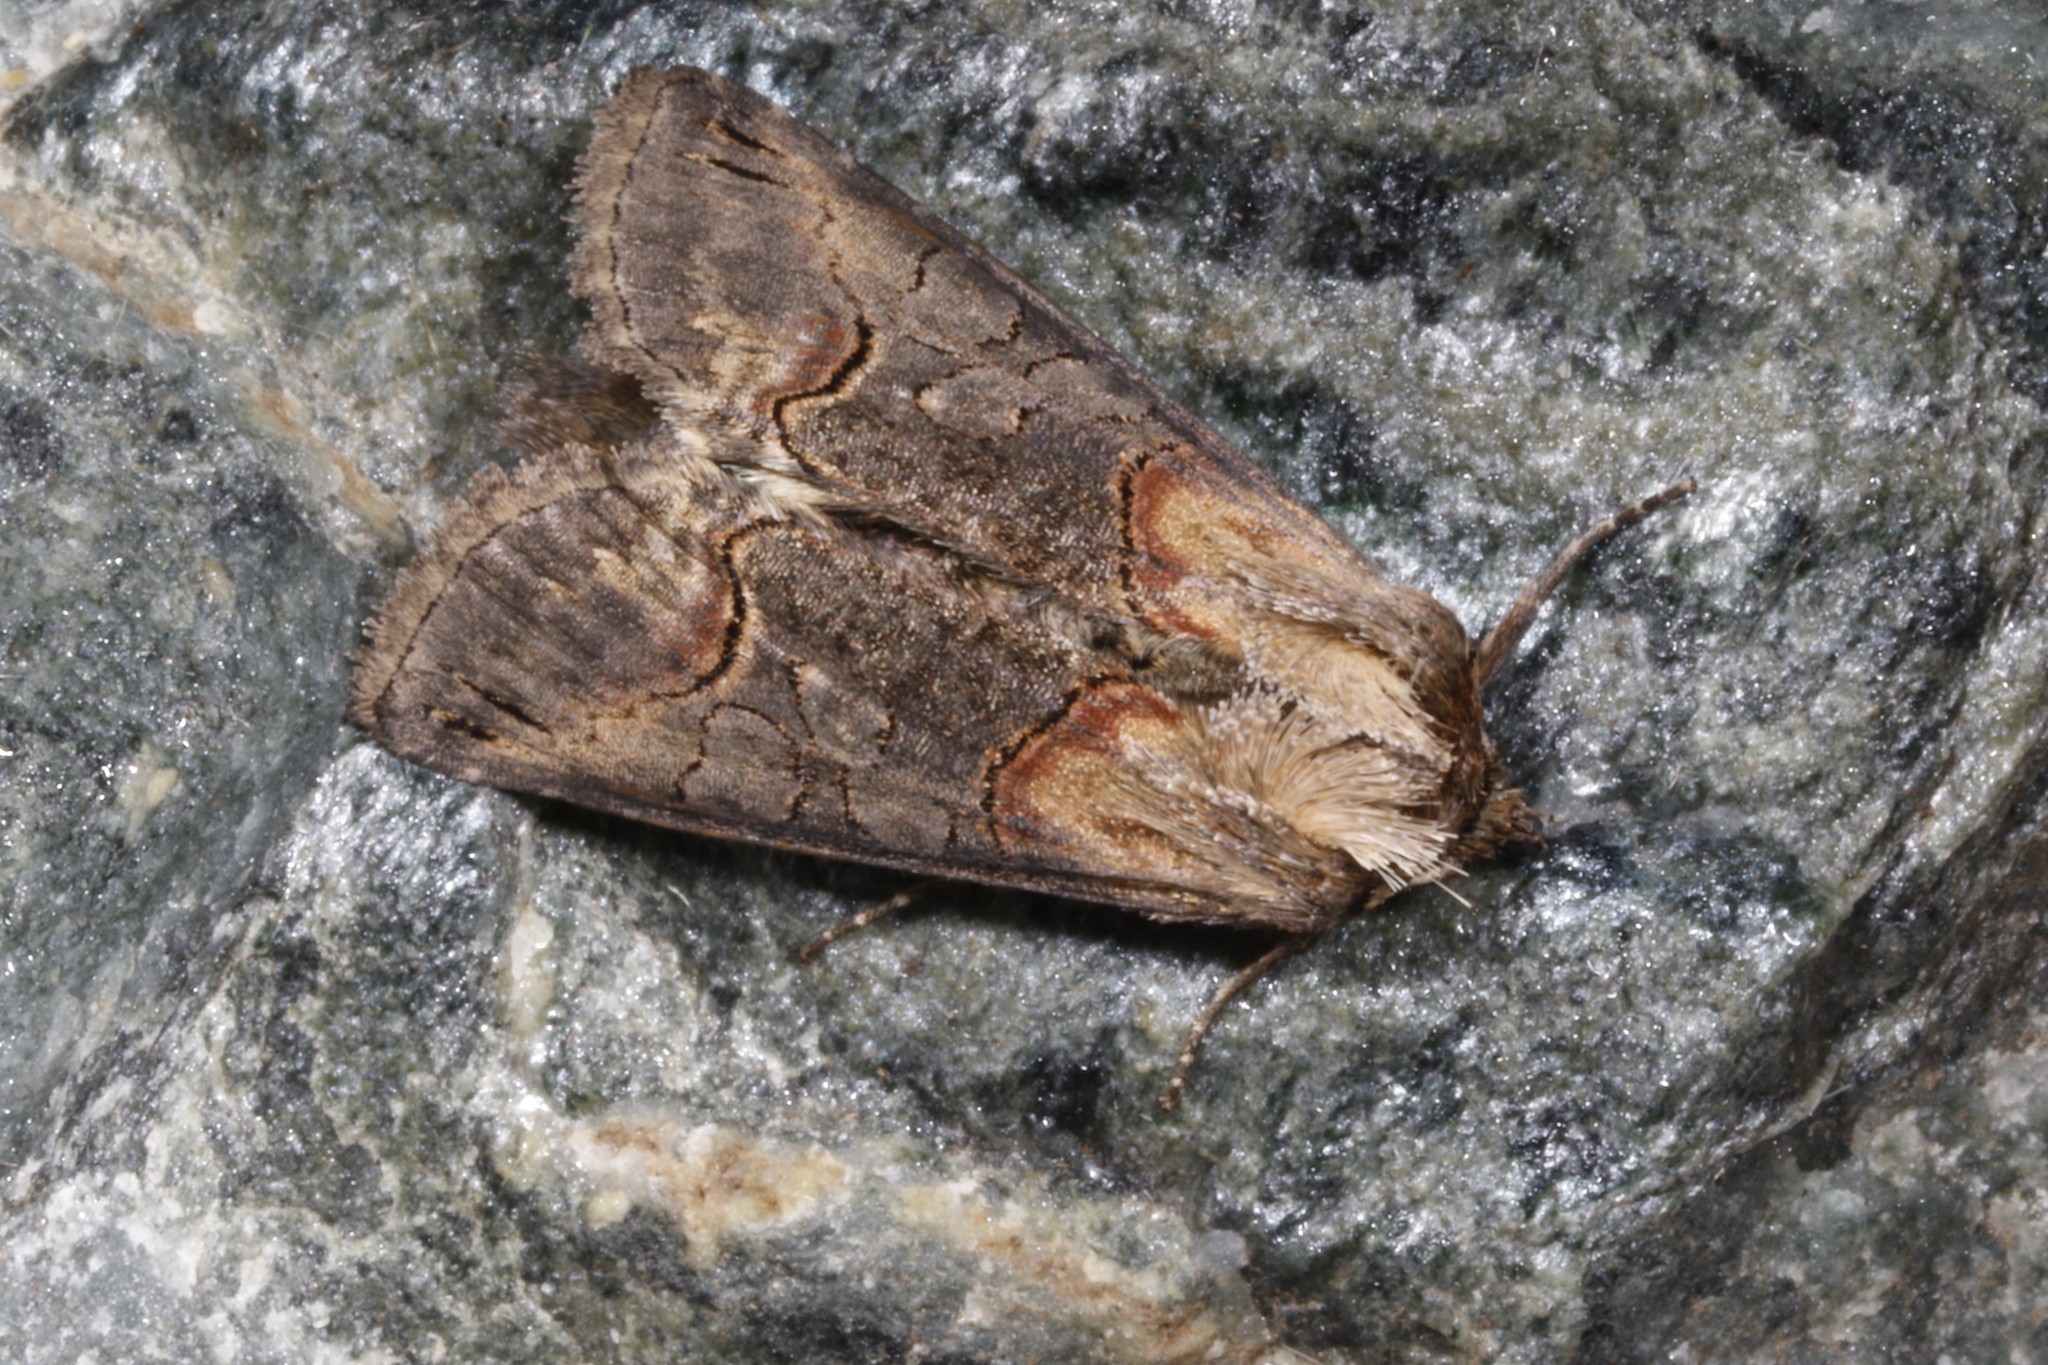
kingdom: Animalia
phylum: Arthropoda
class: Insecta
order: Lepidoptera
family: Noctuidae
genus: Abrostola
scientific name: Abrostola triplasia
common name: Dark spectacle
